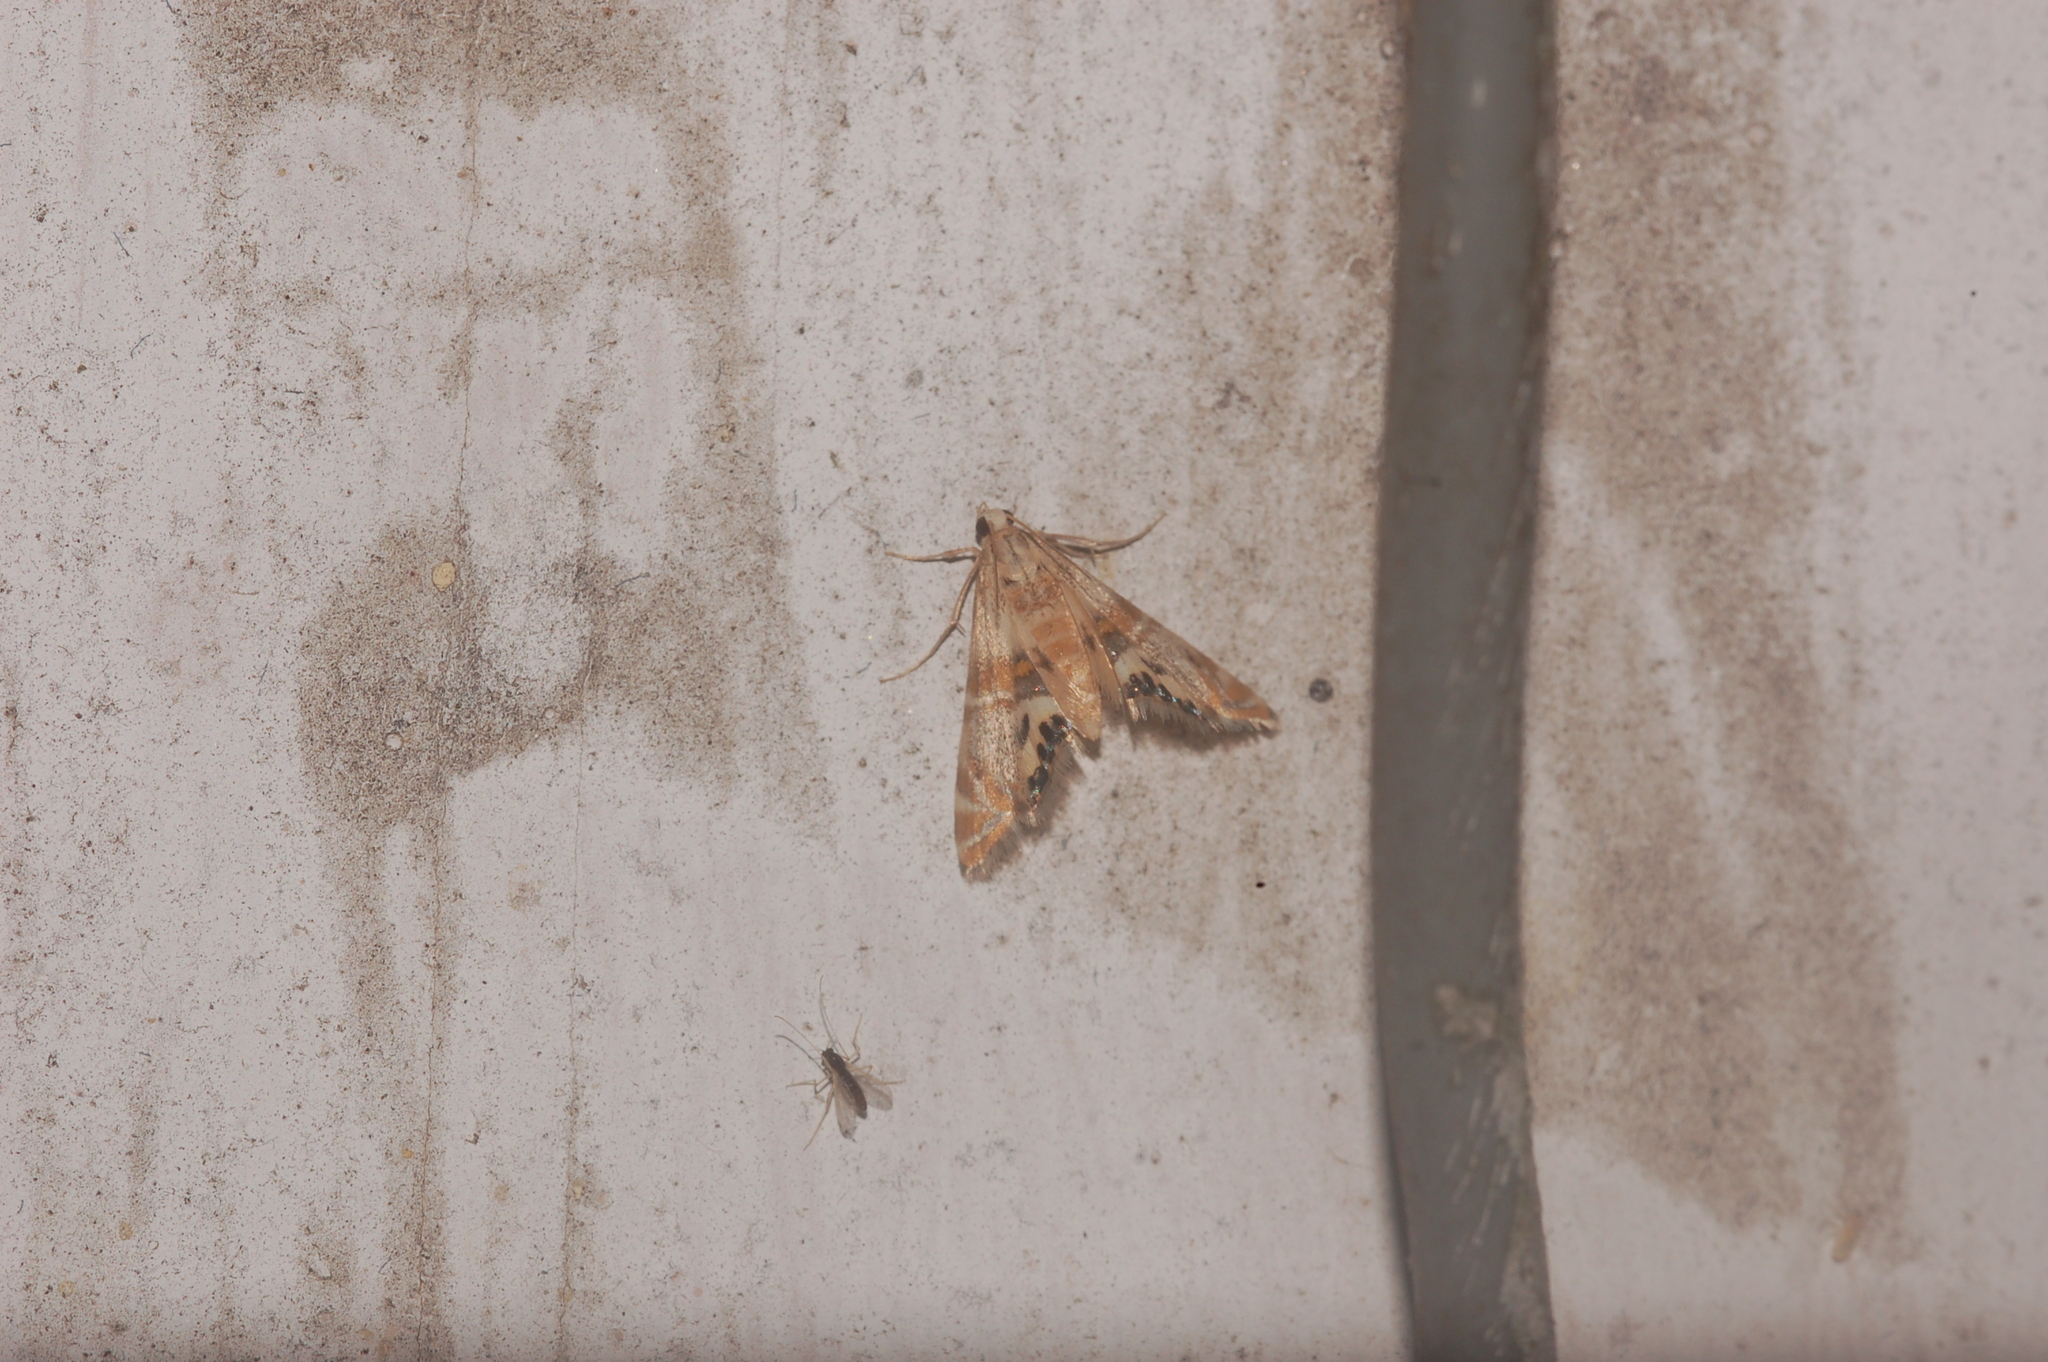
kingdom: Animalia
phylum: Arthropoda
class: Insecta
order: Lepidoptera
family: Crambidae
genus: Petrophila
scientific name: Petrophila bifascialis
